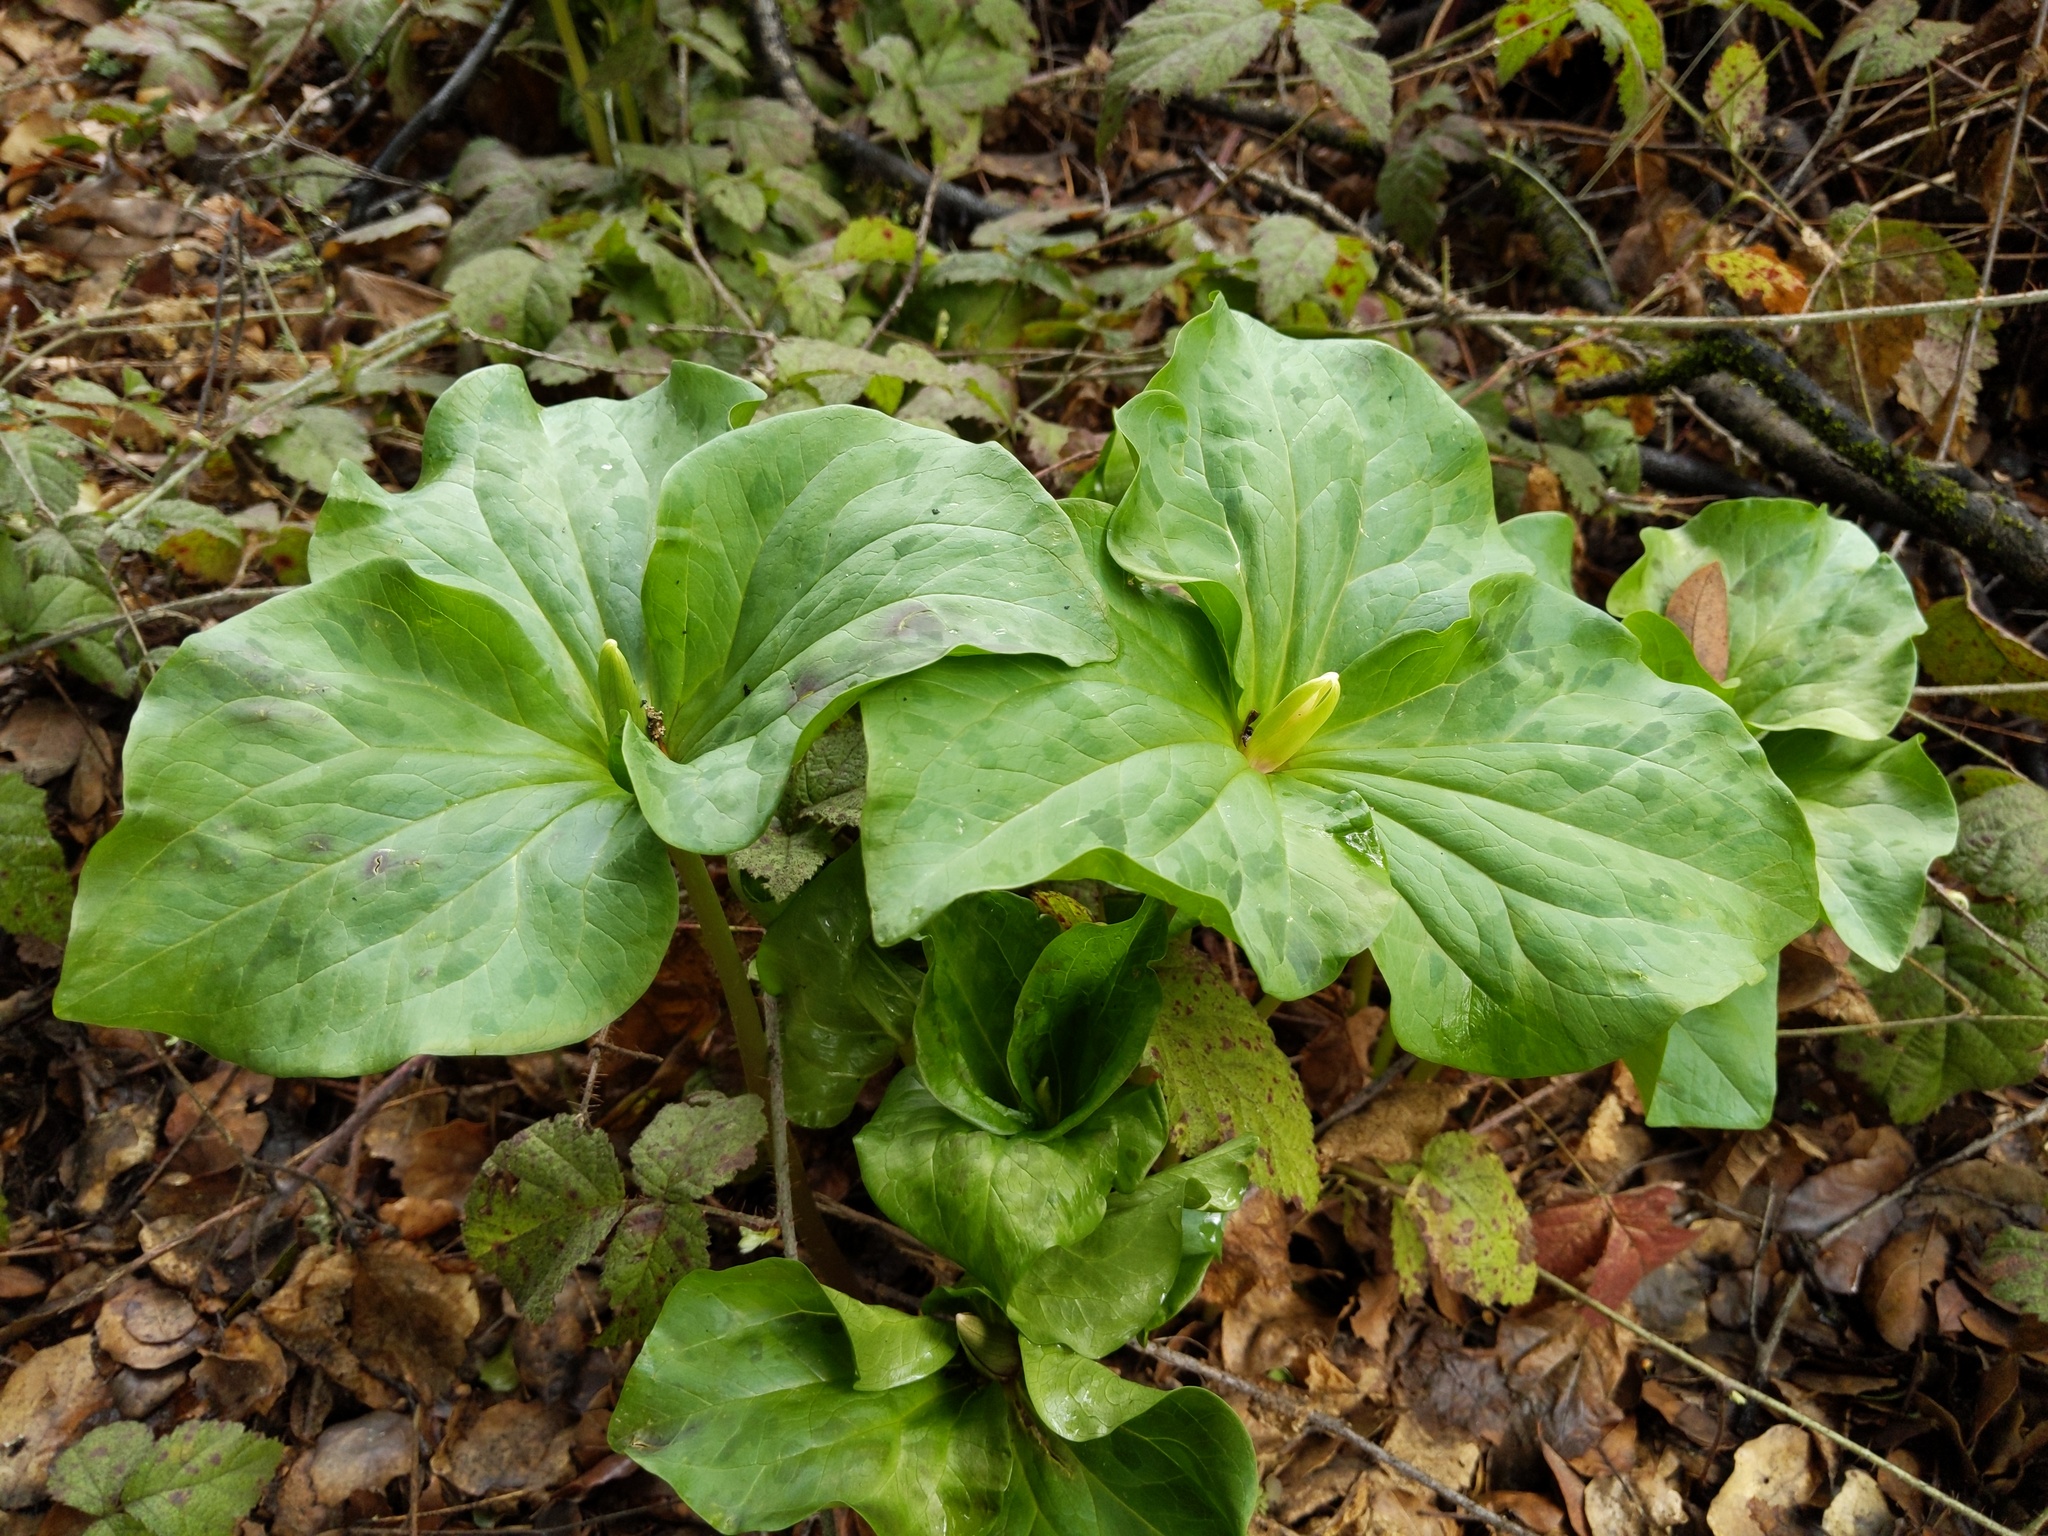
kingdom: Plantae
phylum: Tracheophyta
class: Liliopsida
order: Liliales
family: Melanthiaceae
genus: Trillium
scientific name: Trillium chloropetalum
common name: Giant trillium
